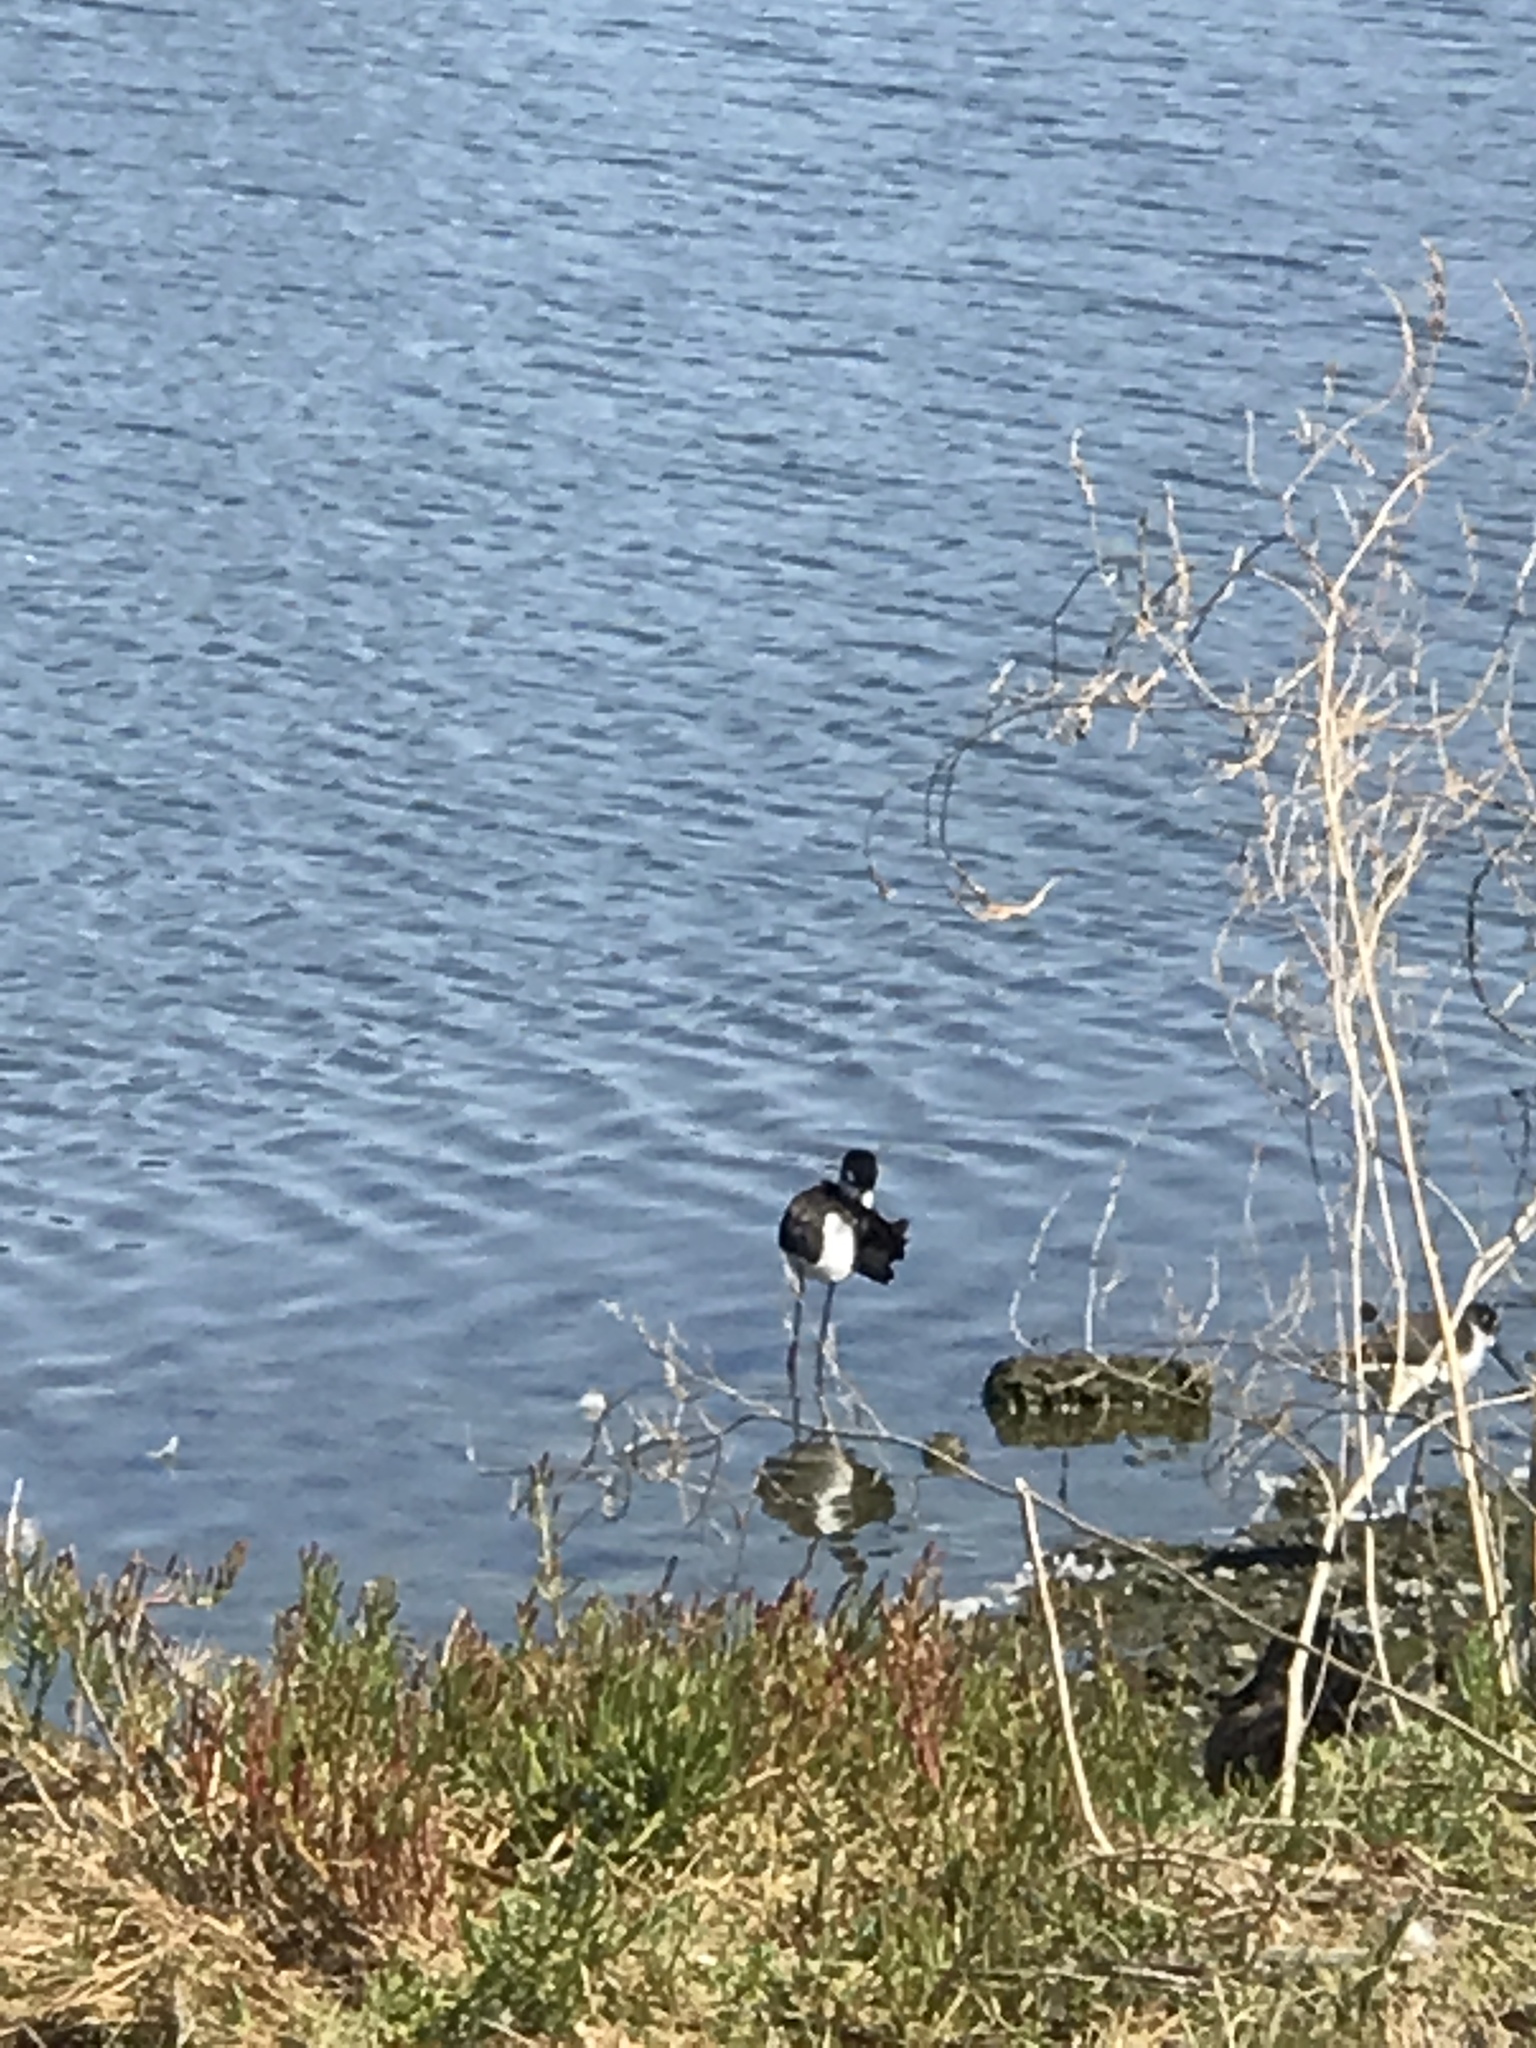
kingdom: Animalia
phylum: Chordata
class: Aves
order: Charadriiformes
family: Recurvirostridae
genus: Himantopus
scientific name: Himantopus mexicanus
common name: Black-necked stilt
